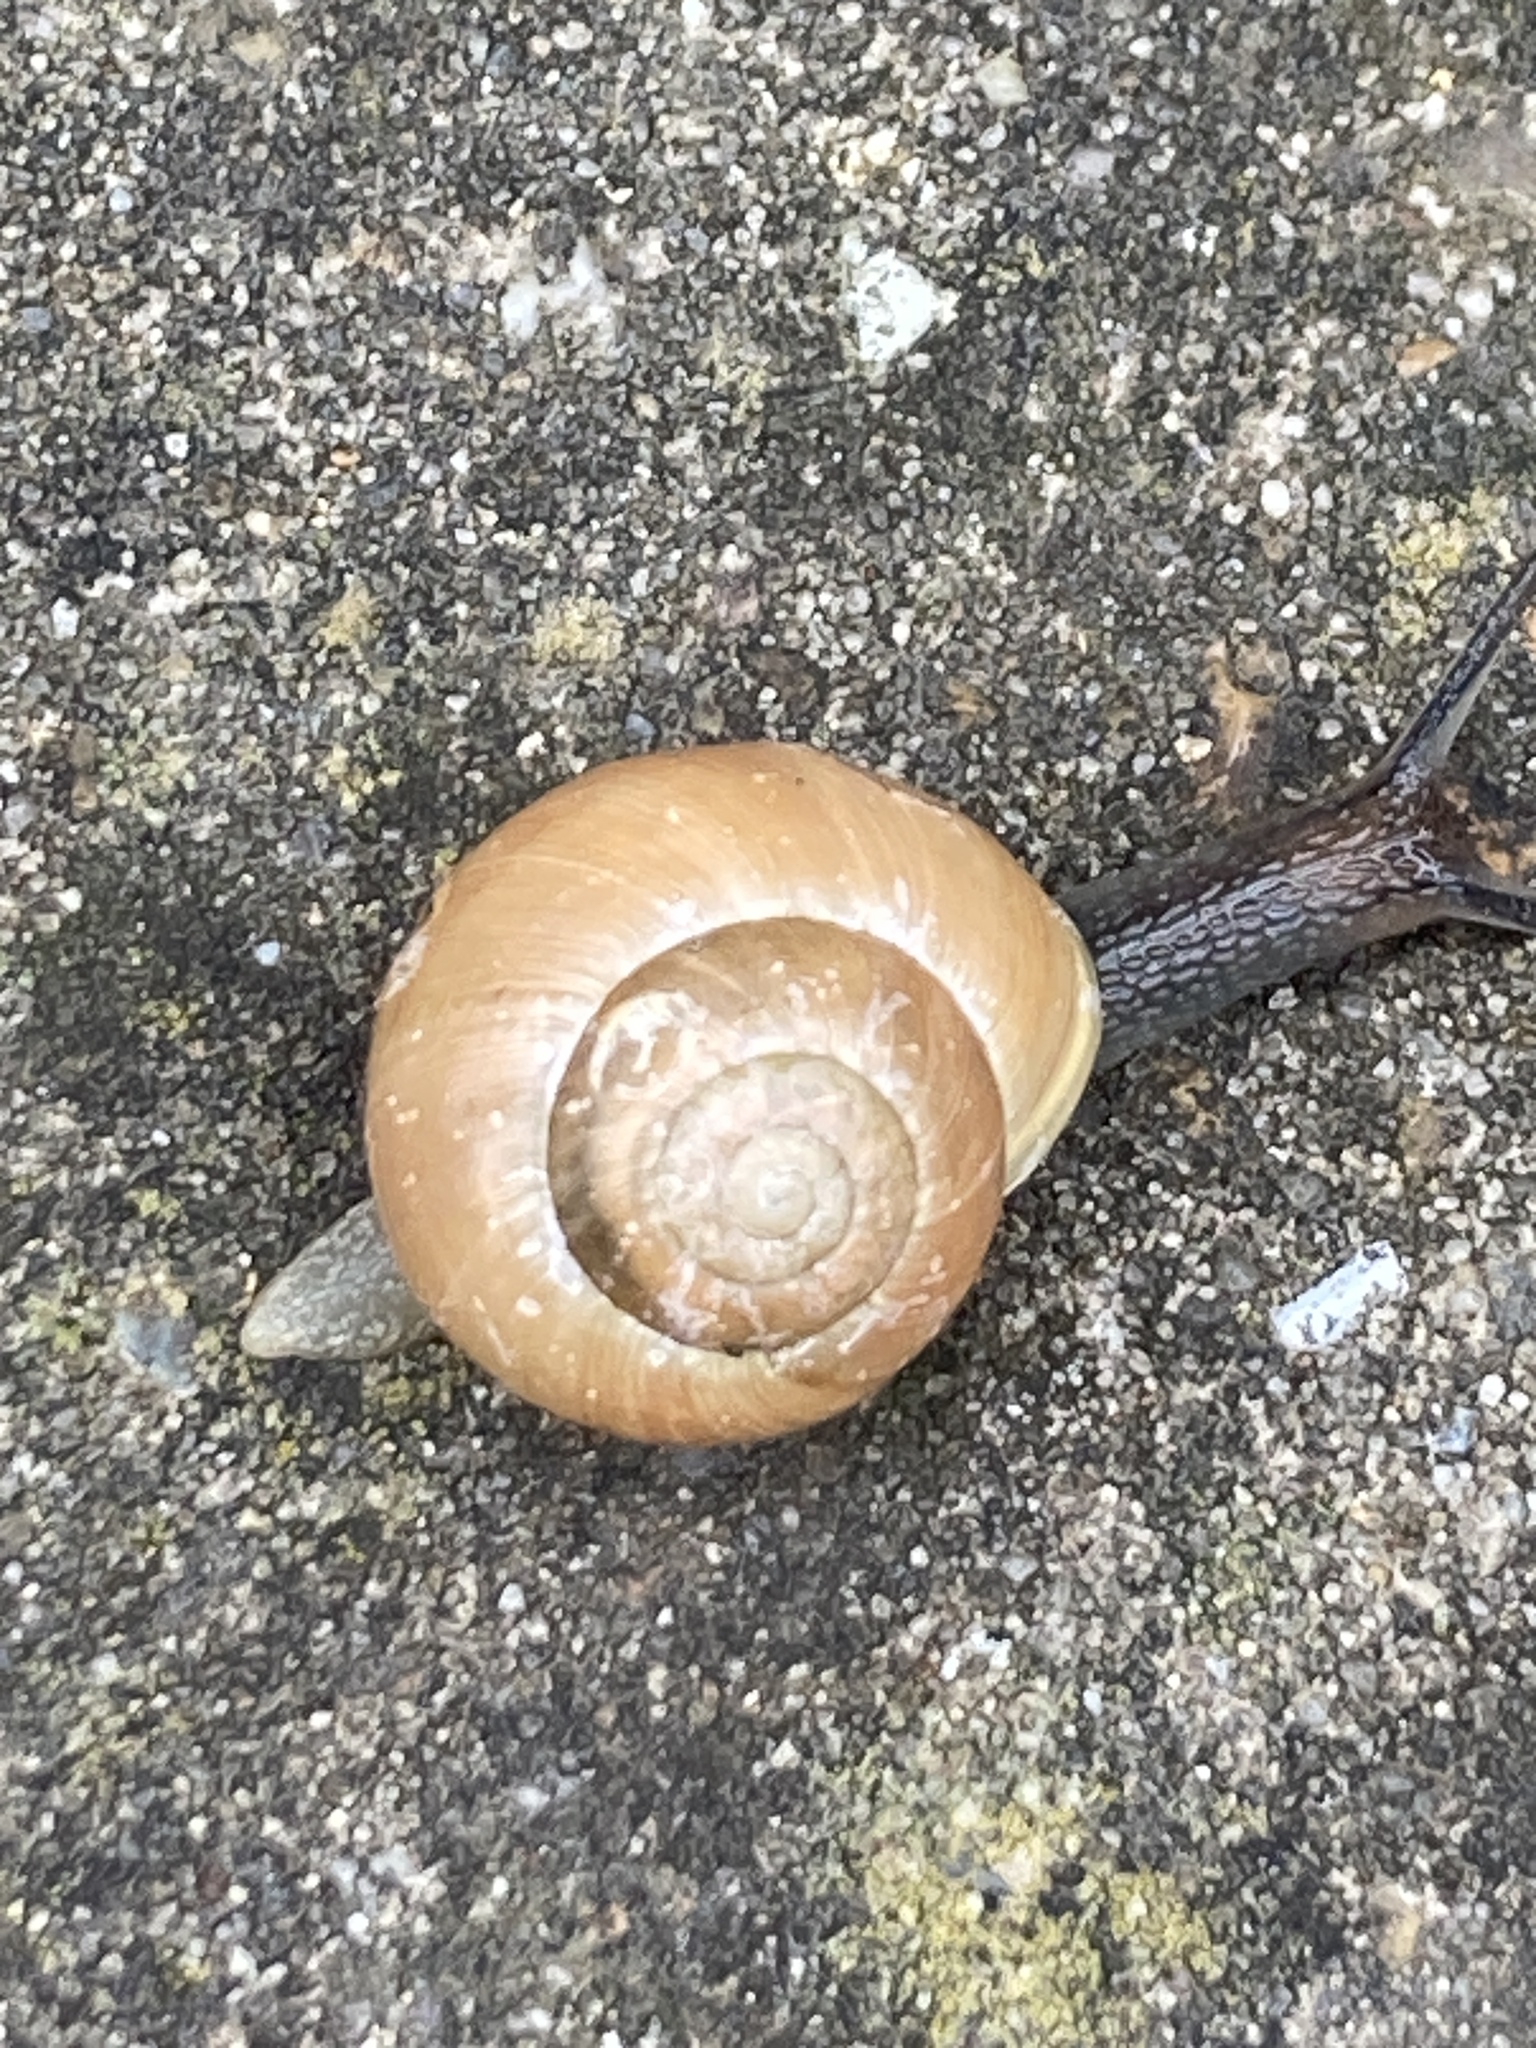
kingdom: Animalia
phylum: Mollusca
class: Gastropoda
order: Stylommatophora
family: Helicidae
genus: Cepaea
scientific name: Cepaea hortensis
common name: White-lip gardensnail
